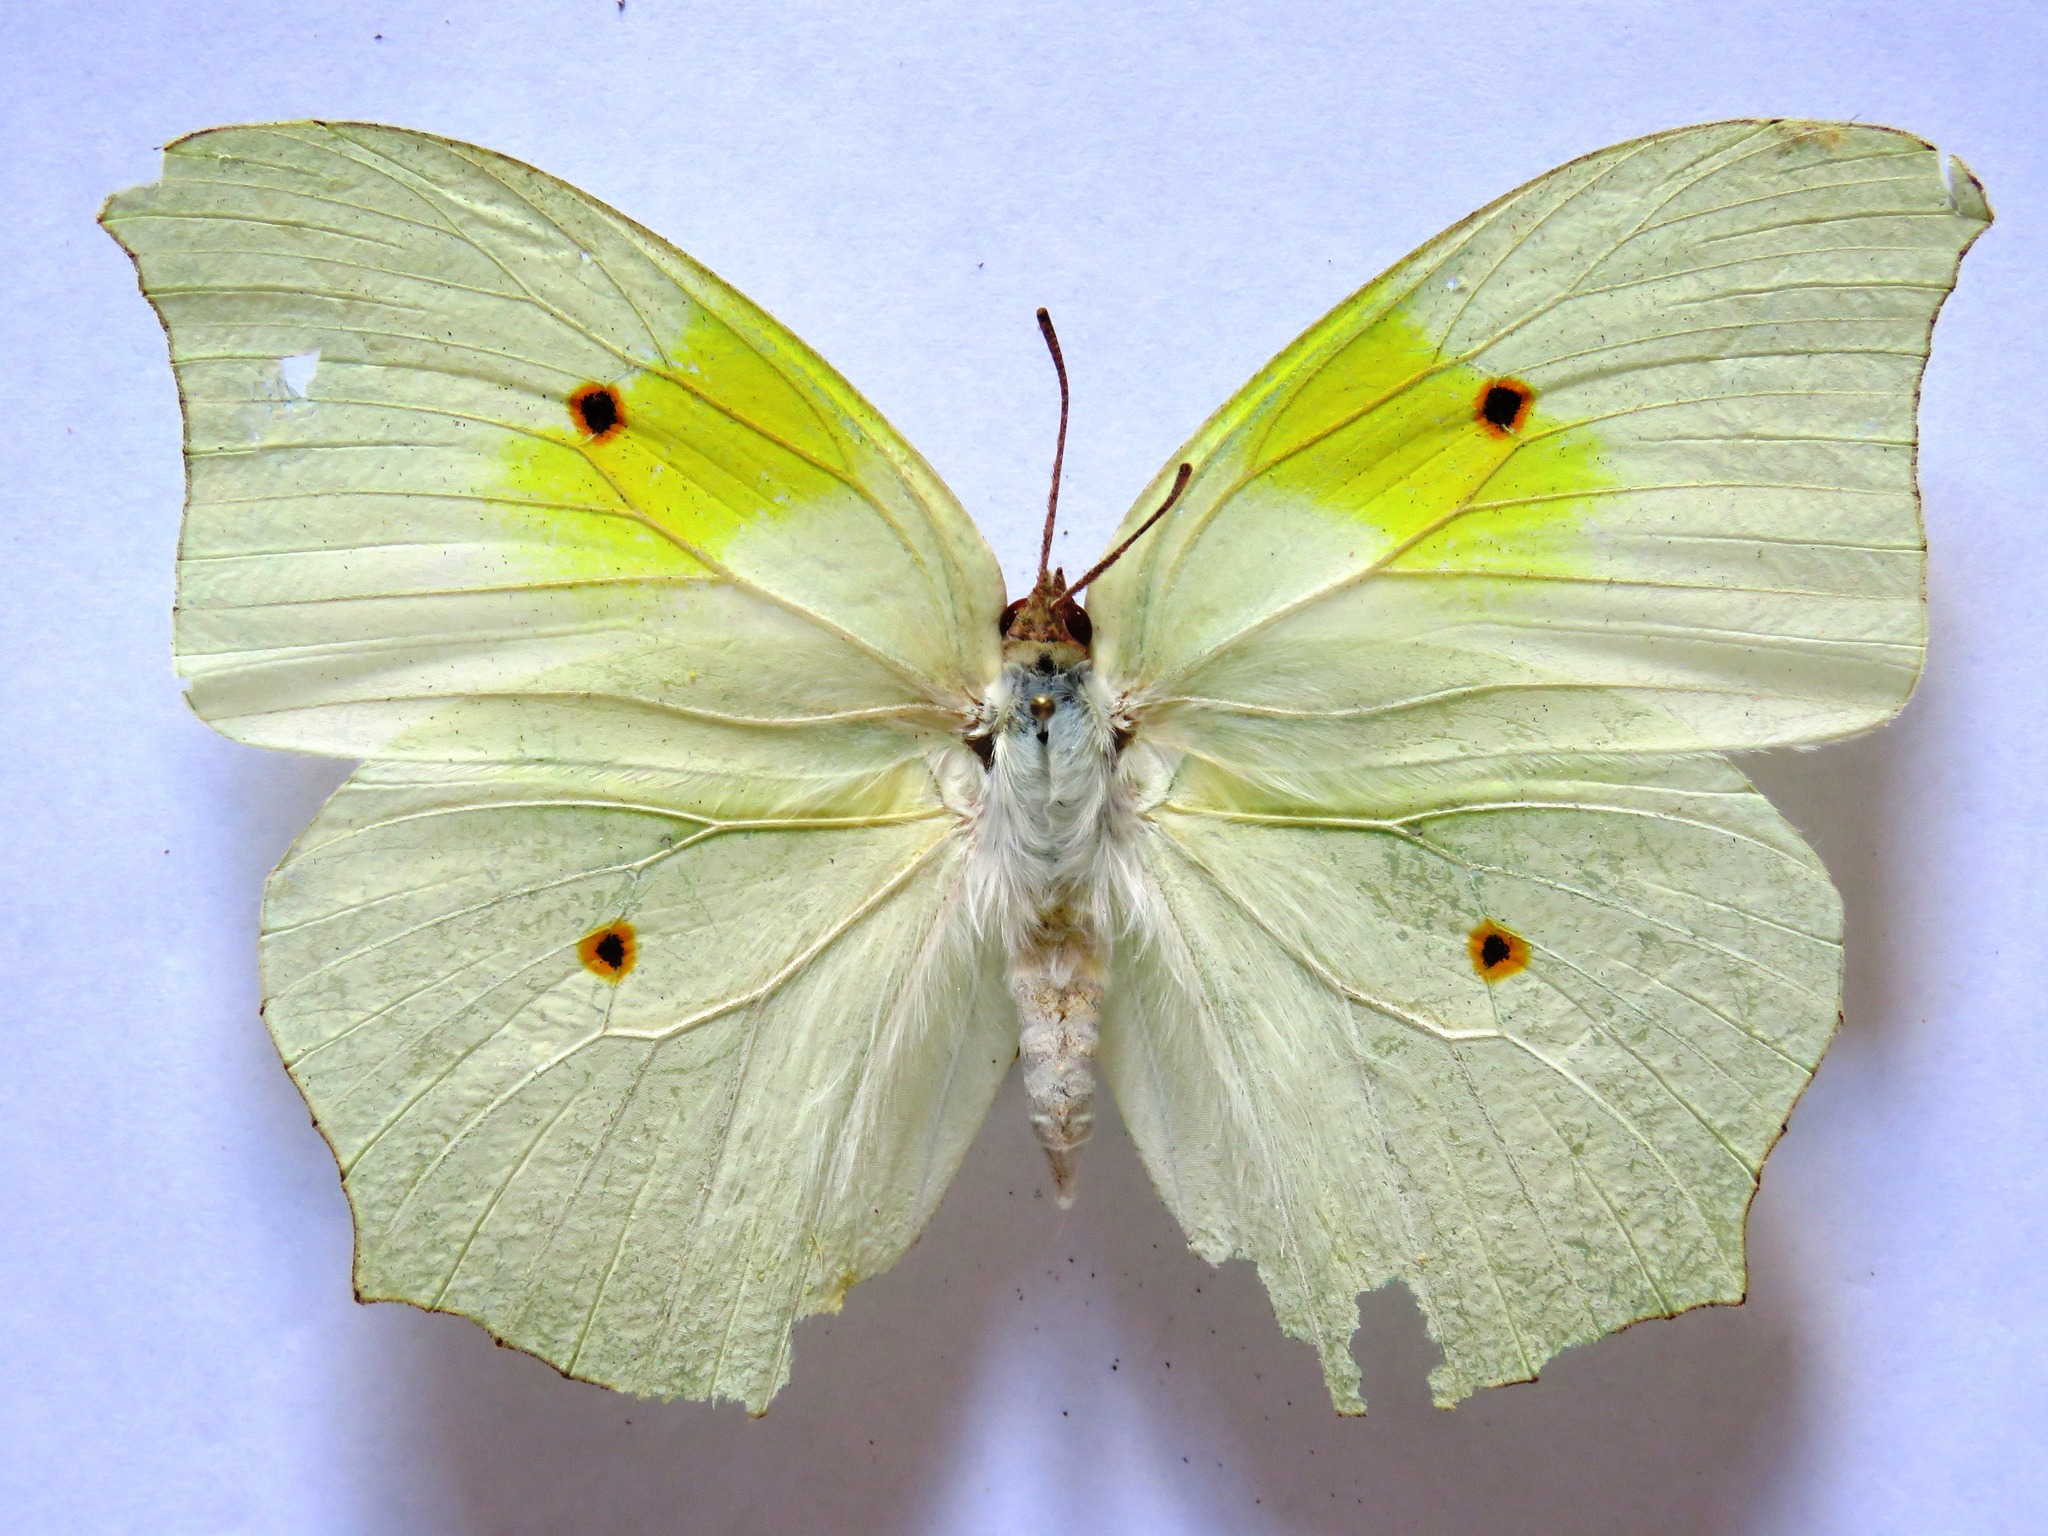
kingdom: Animalia
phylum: Arthropoda
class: Insecta
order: Lepidoptera
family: Pieridae
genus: Anteos
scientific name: Anteos clorinde
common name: White angled sulphur
